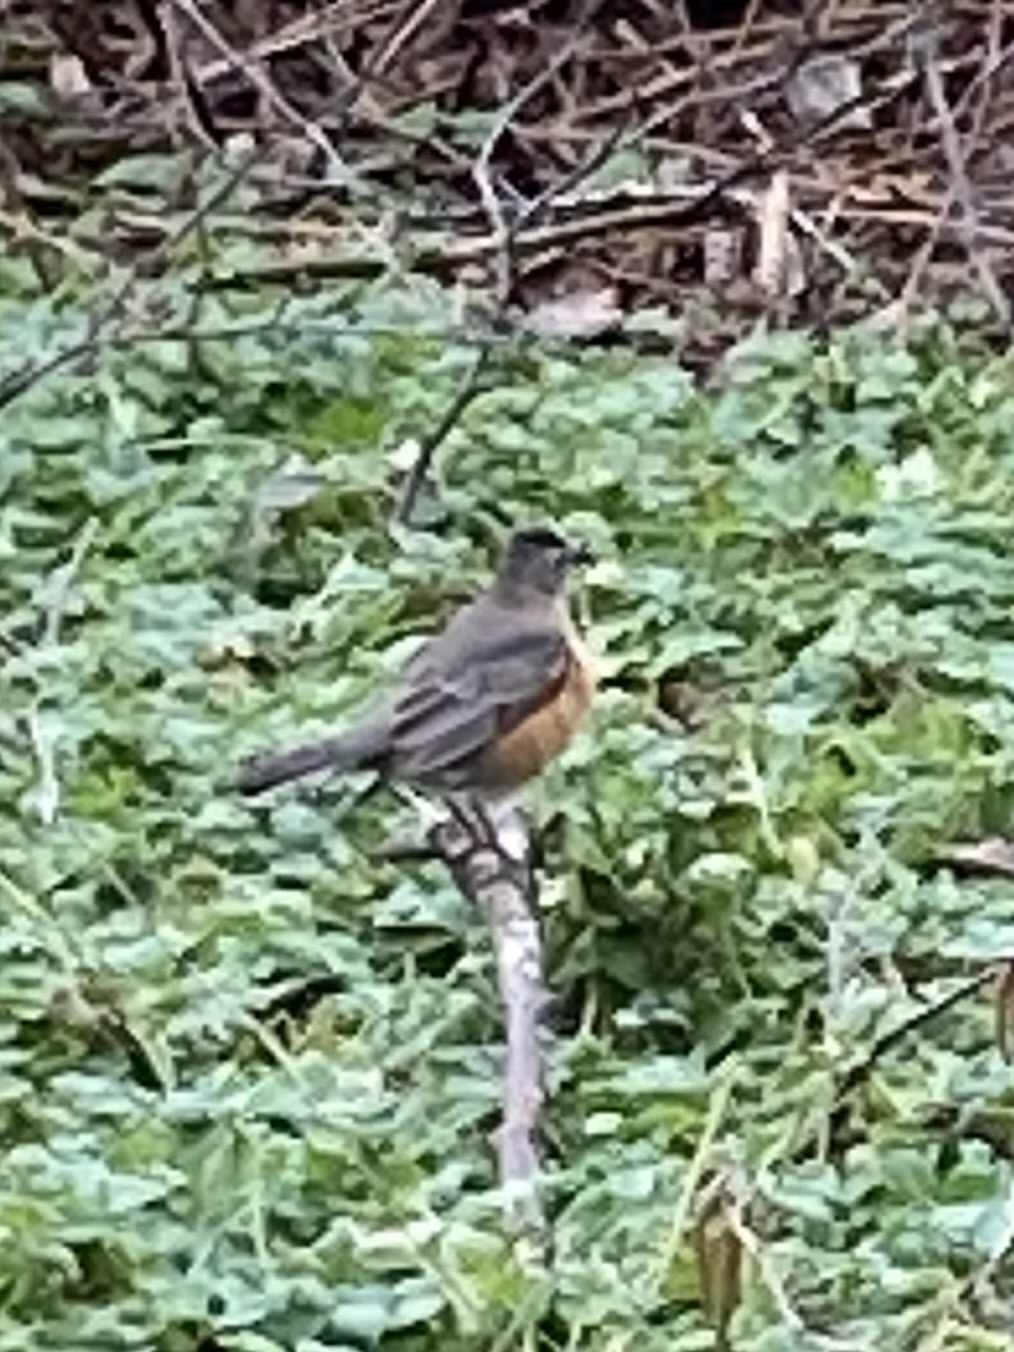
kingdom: Animalia
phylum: Chordata
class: Aves
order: Passeriformes
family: Turdidae
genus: Turdus
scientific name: Turdus migratorius
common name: American robin
